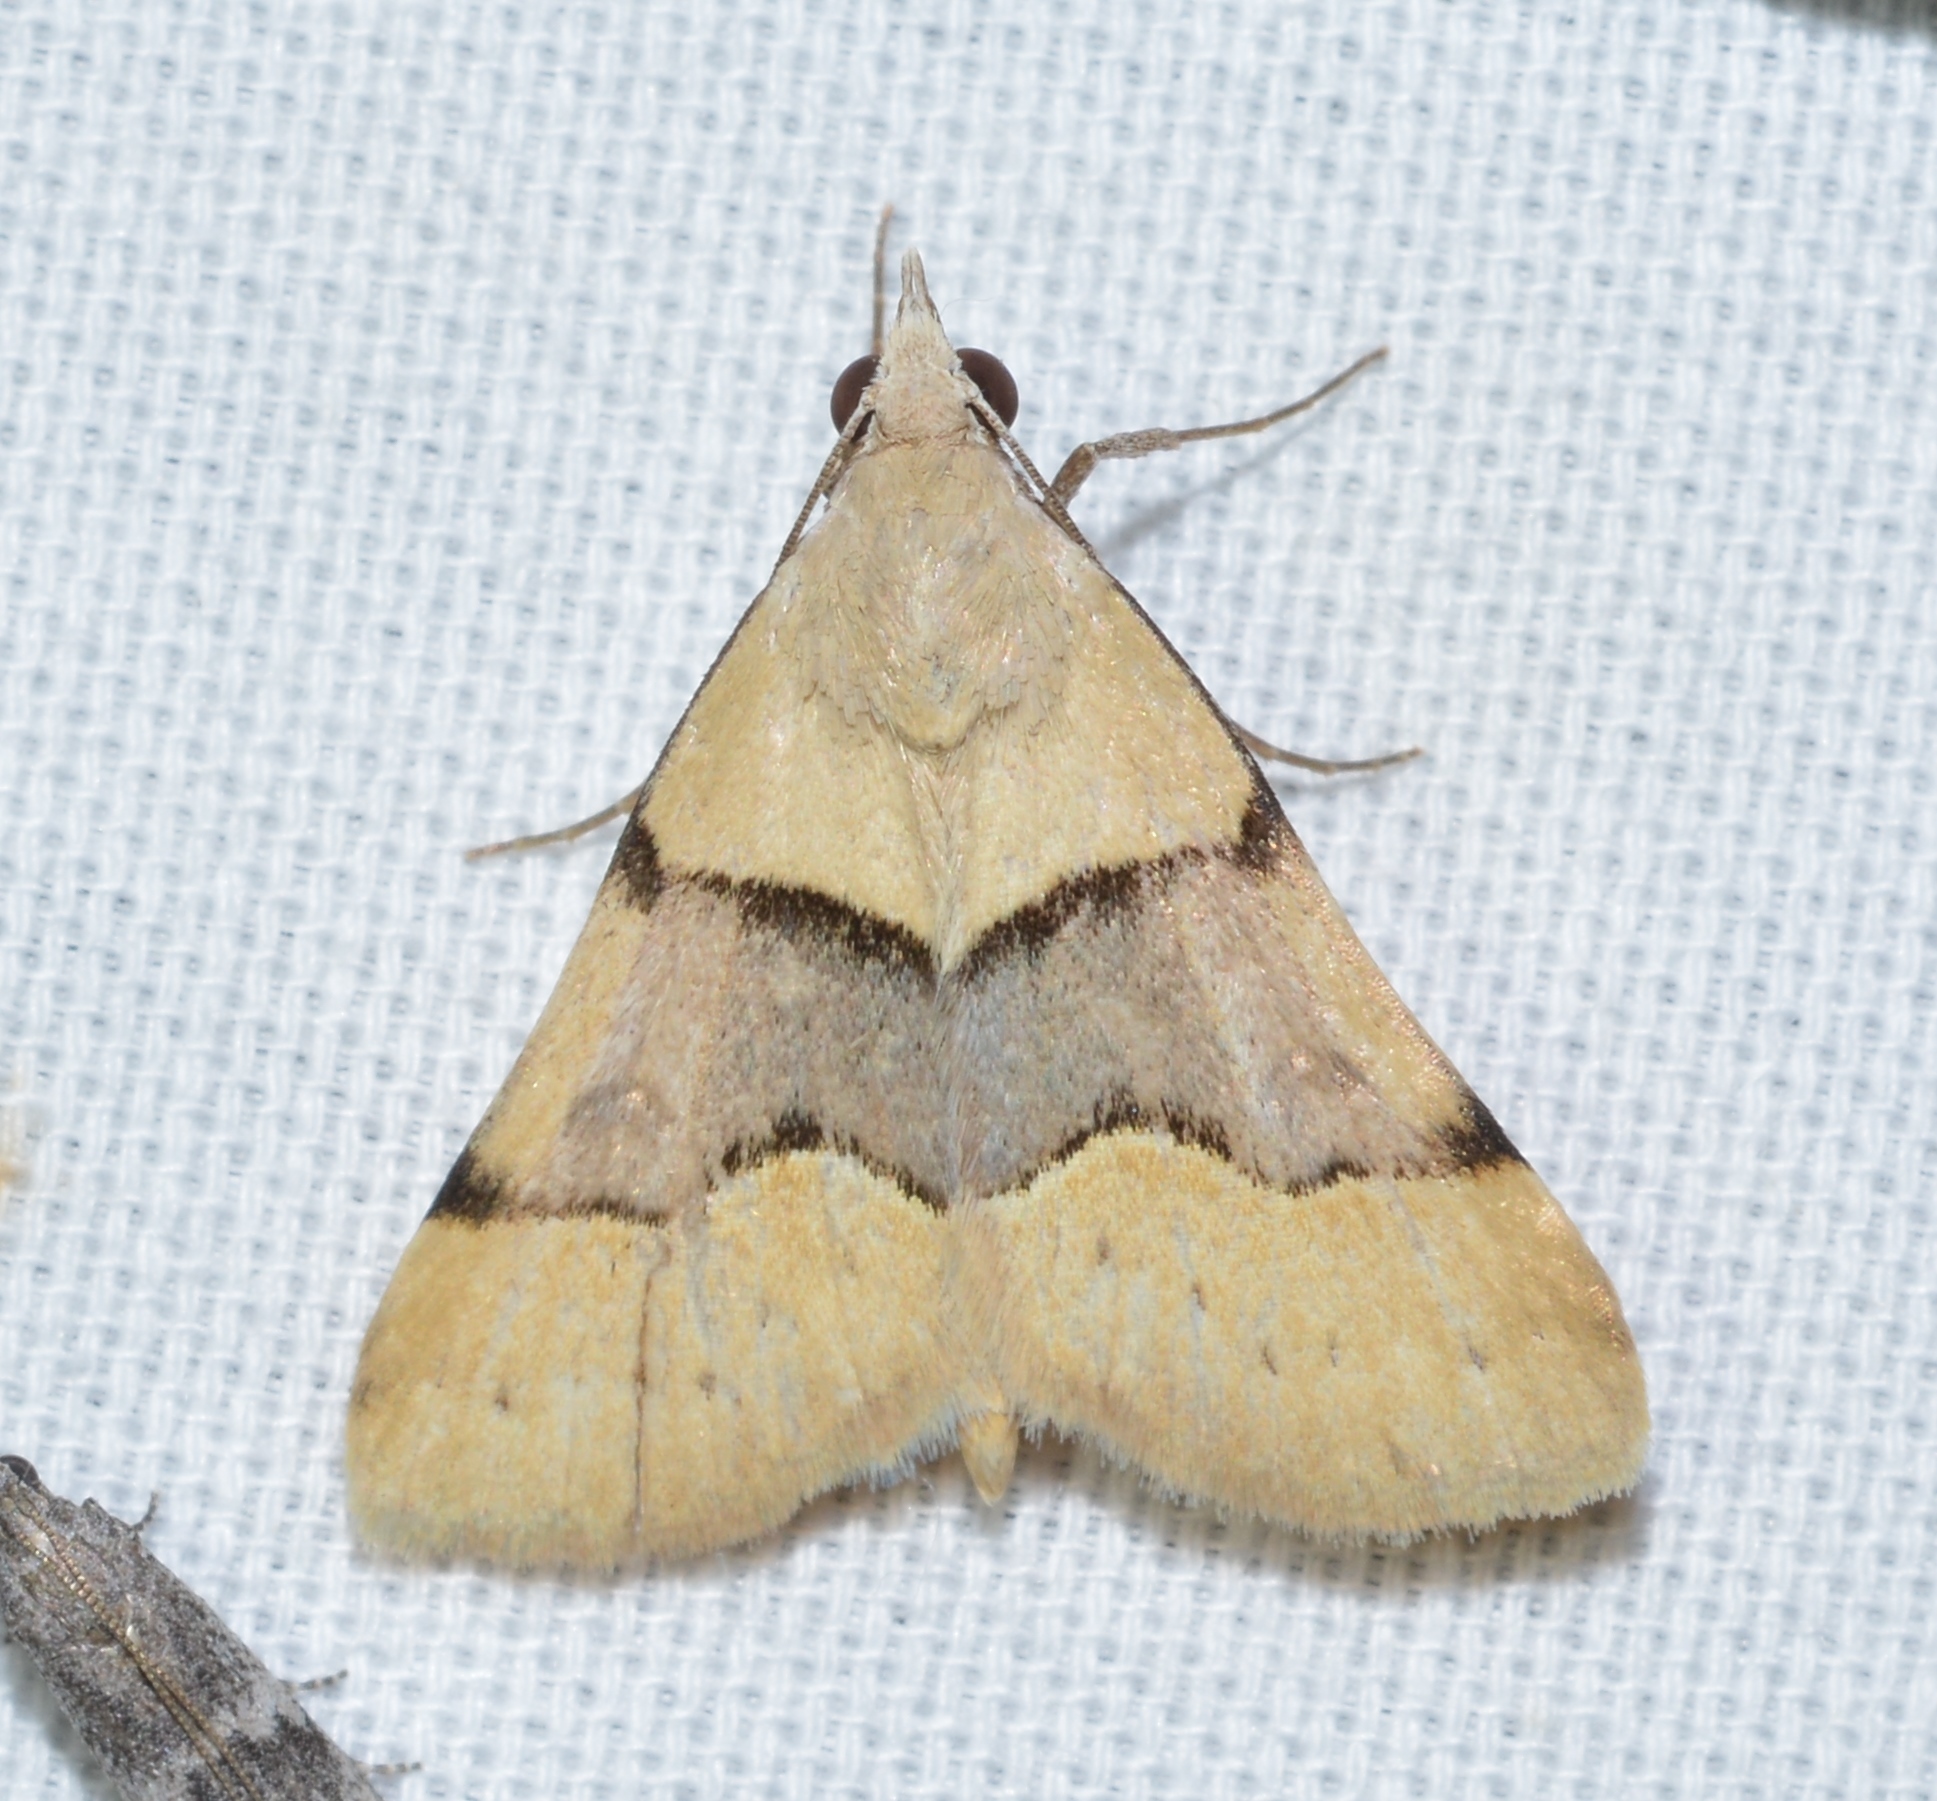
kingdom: Animalia
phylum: Arthropoda
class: Insecta
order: Lepidoptera
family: Erebidae
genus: Hemeroplanis
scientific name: Hemeroplanis incusalis
